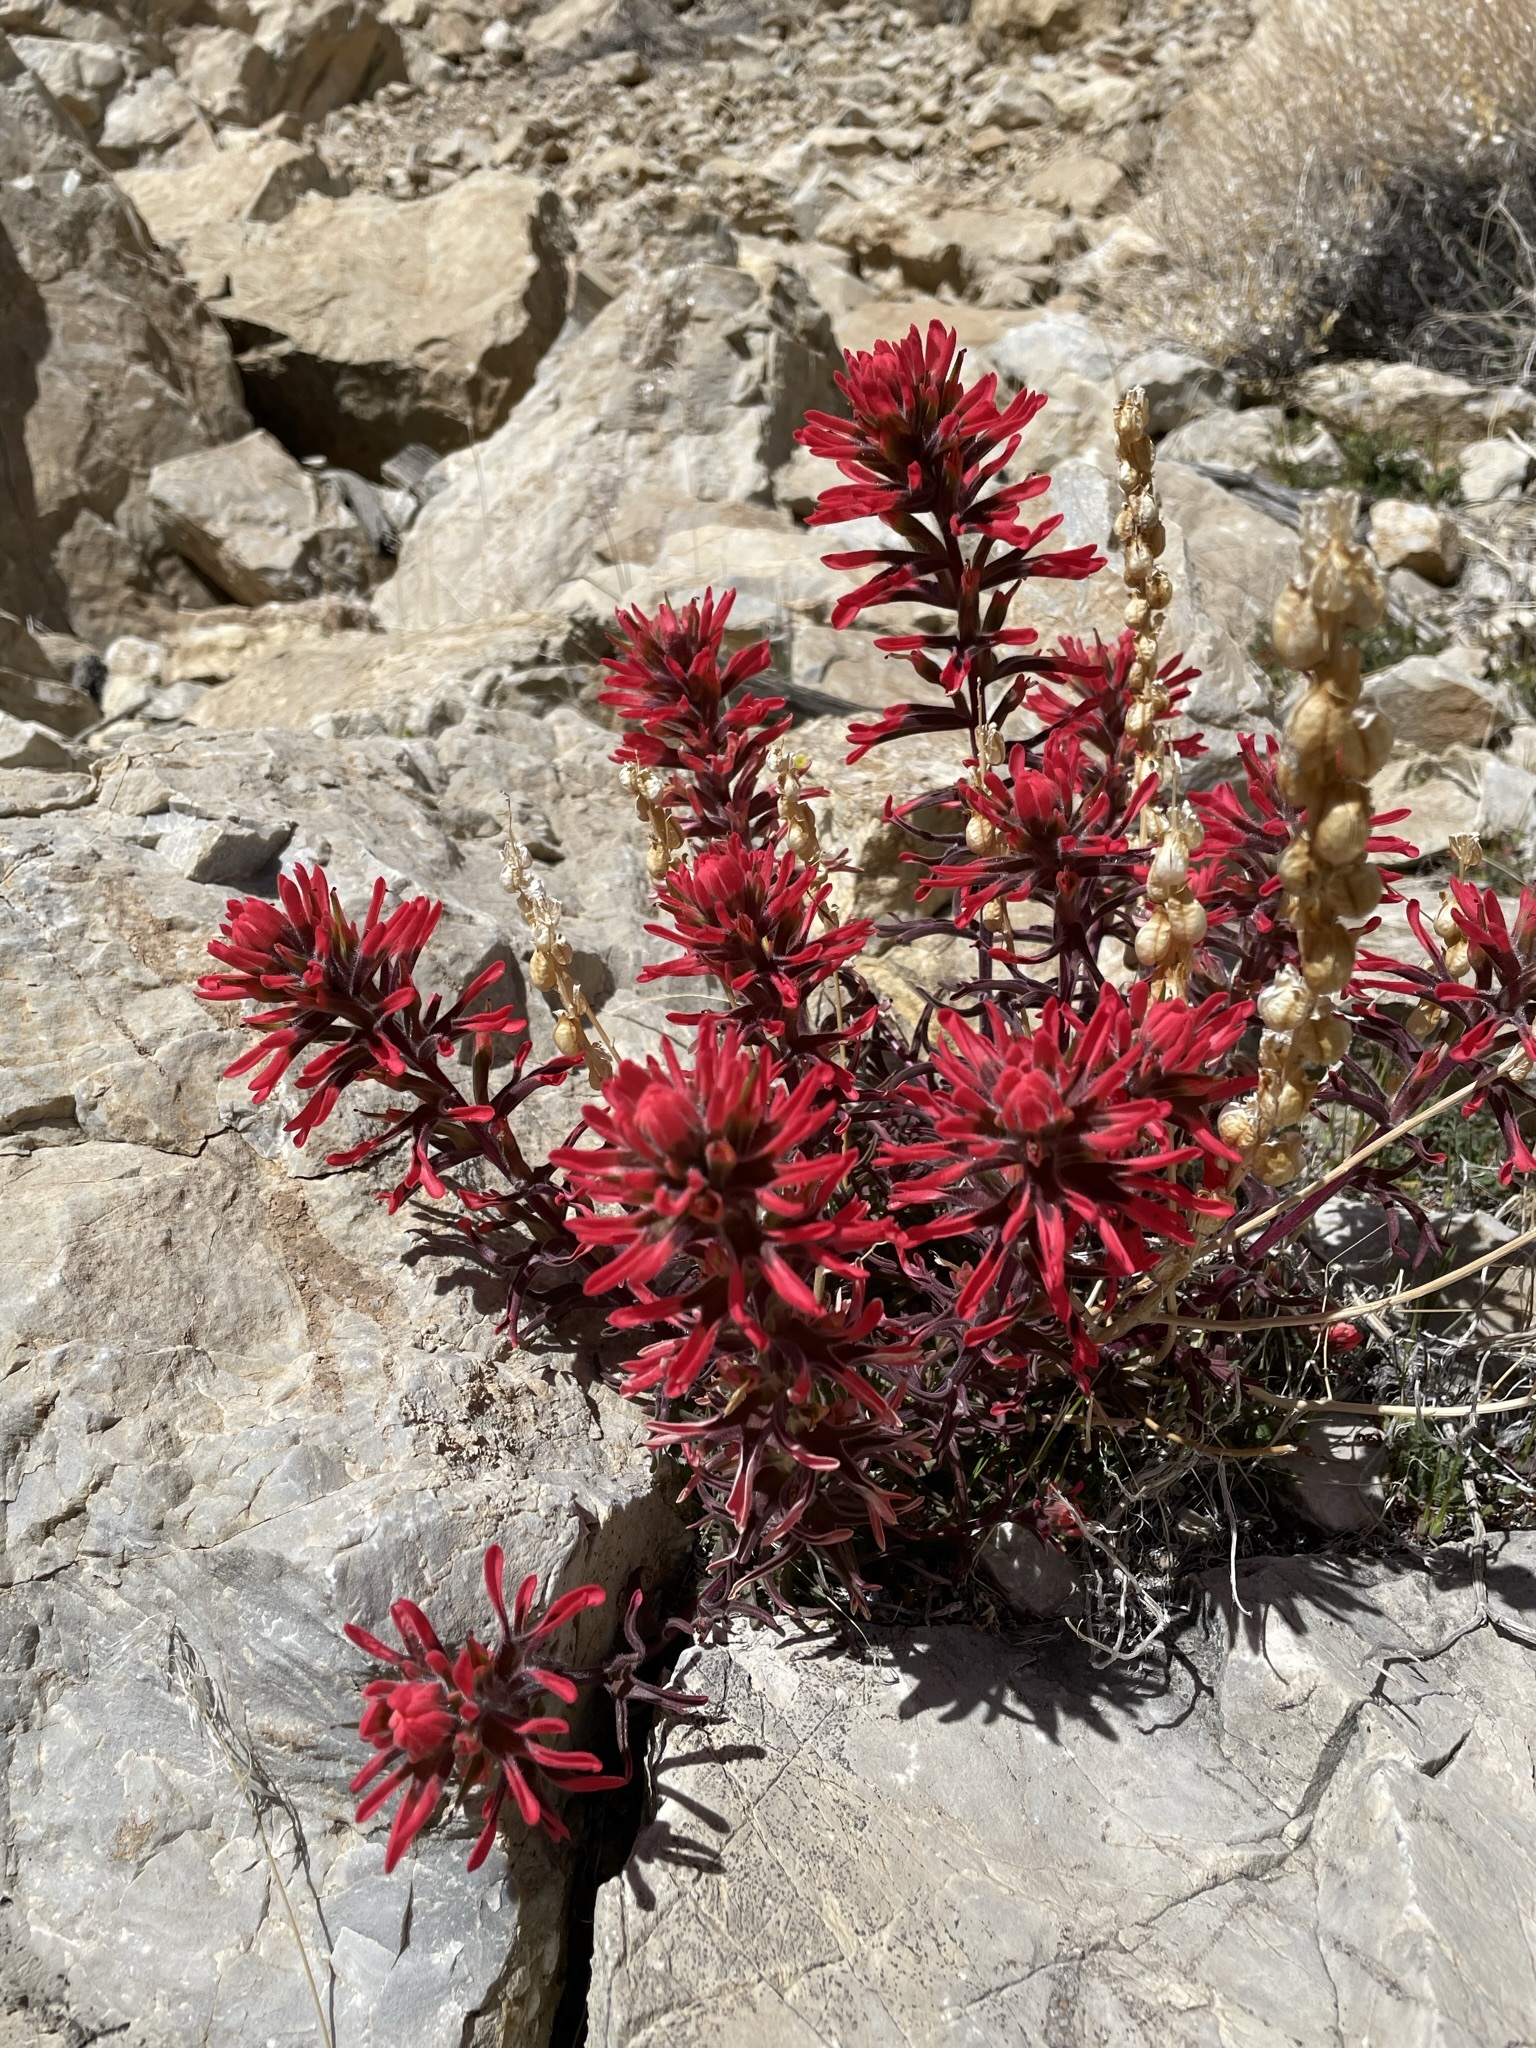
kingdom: Plantae
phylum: Tracheophyta
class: Magnoliopsida
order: Lamiales
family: Orobanchaceae
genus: Castilleja
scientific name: Castilleja chromosa
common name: Desert paintbrush
